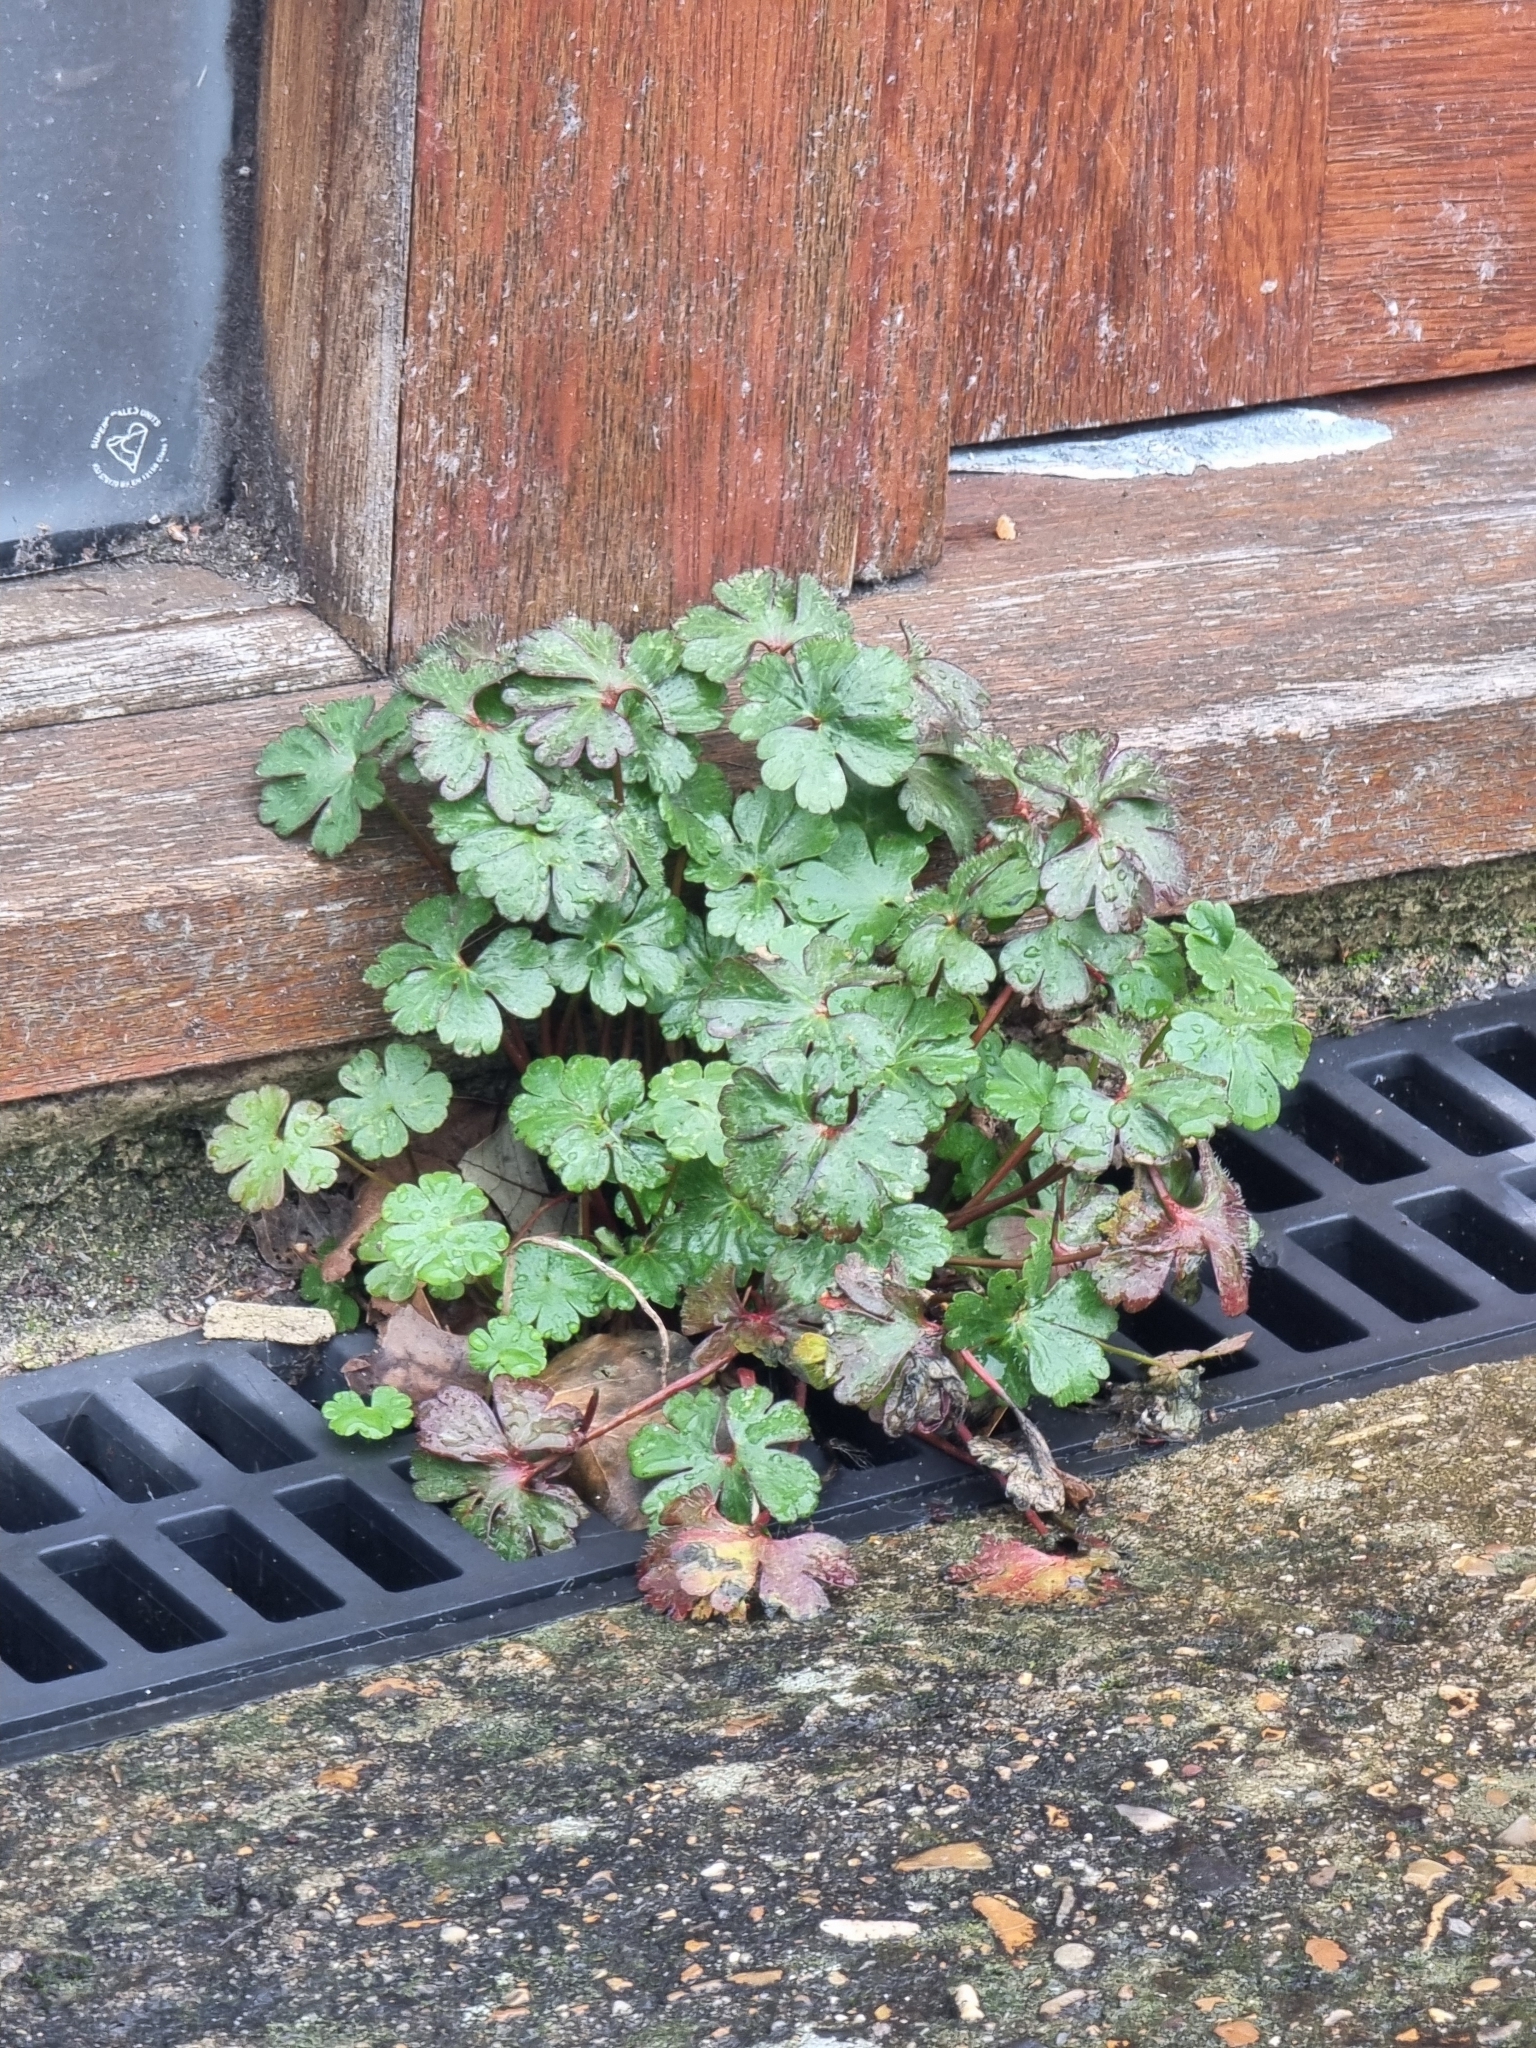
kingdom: Plantae
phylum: Tracheophyta
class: Magnoliopsida
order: Geraniales
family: Geraniaceae
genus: Geranium
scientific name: Geranium lucidum
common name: Shining crane's-bill
